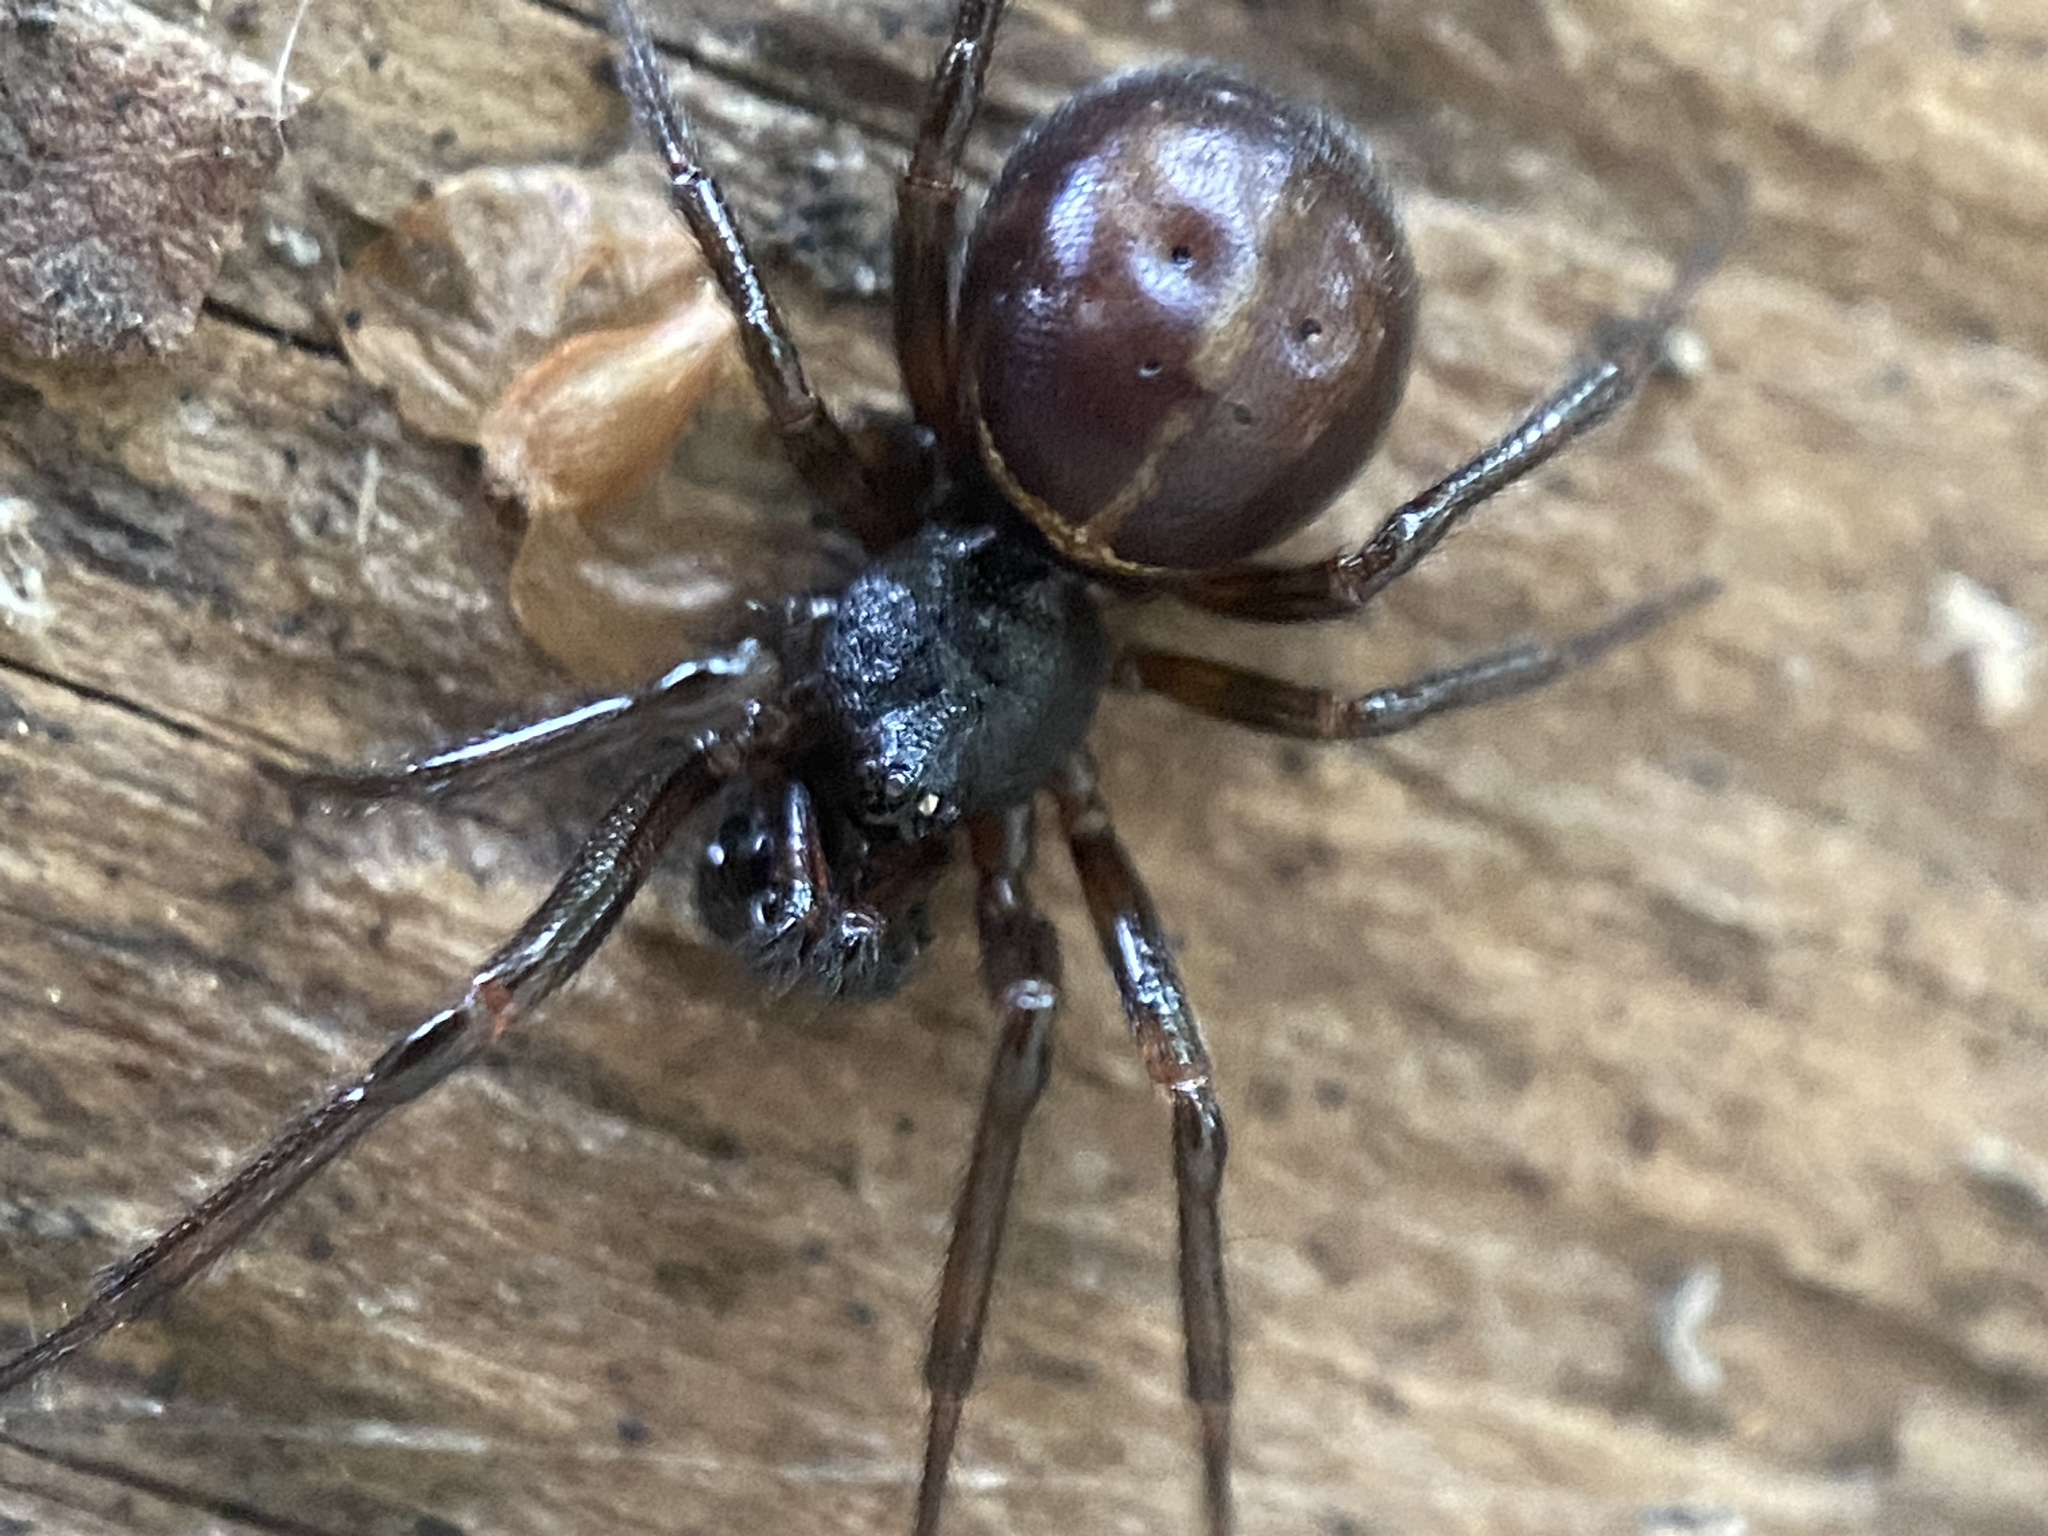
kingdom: Animalia
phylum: Arthropoda
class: Arachnida
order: Araneae
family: Theridiidae
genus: Steatoda
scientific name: Steatoda borealis
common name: Boreal combfoot
